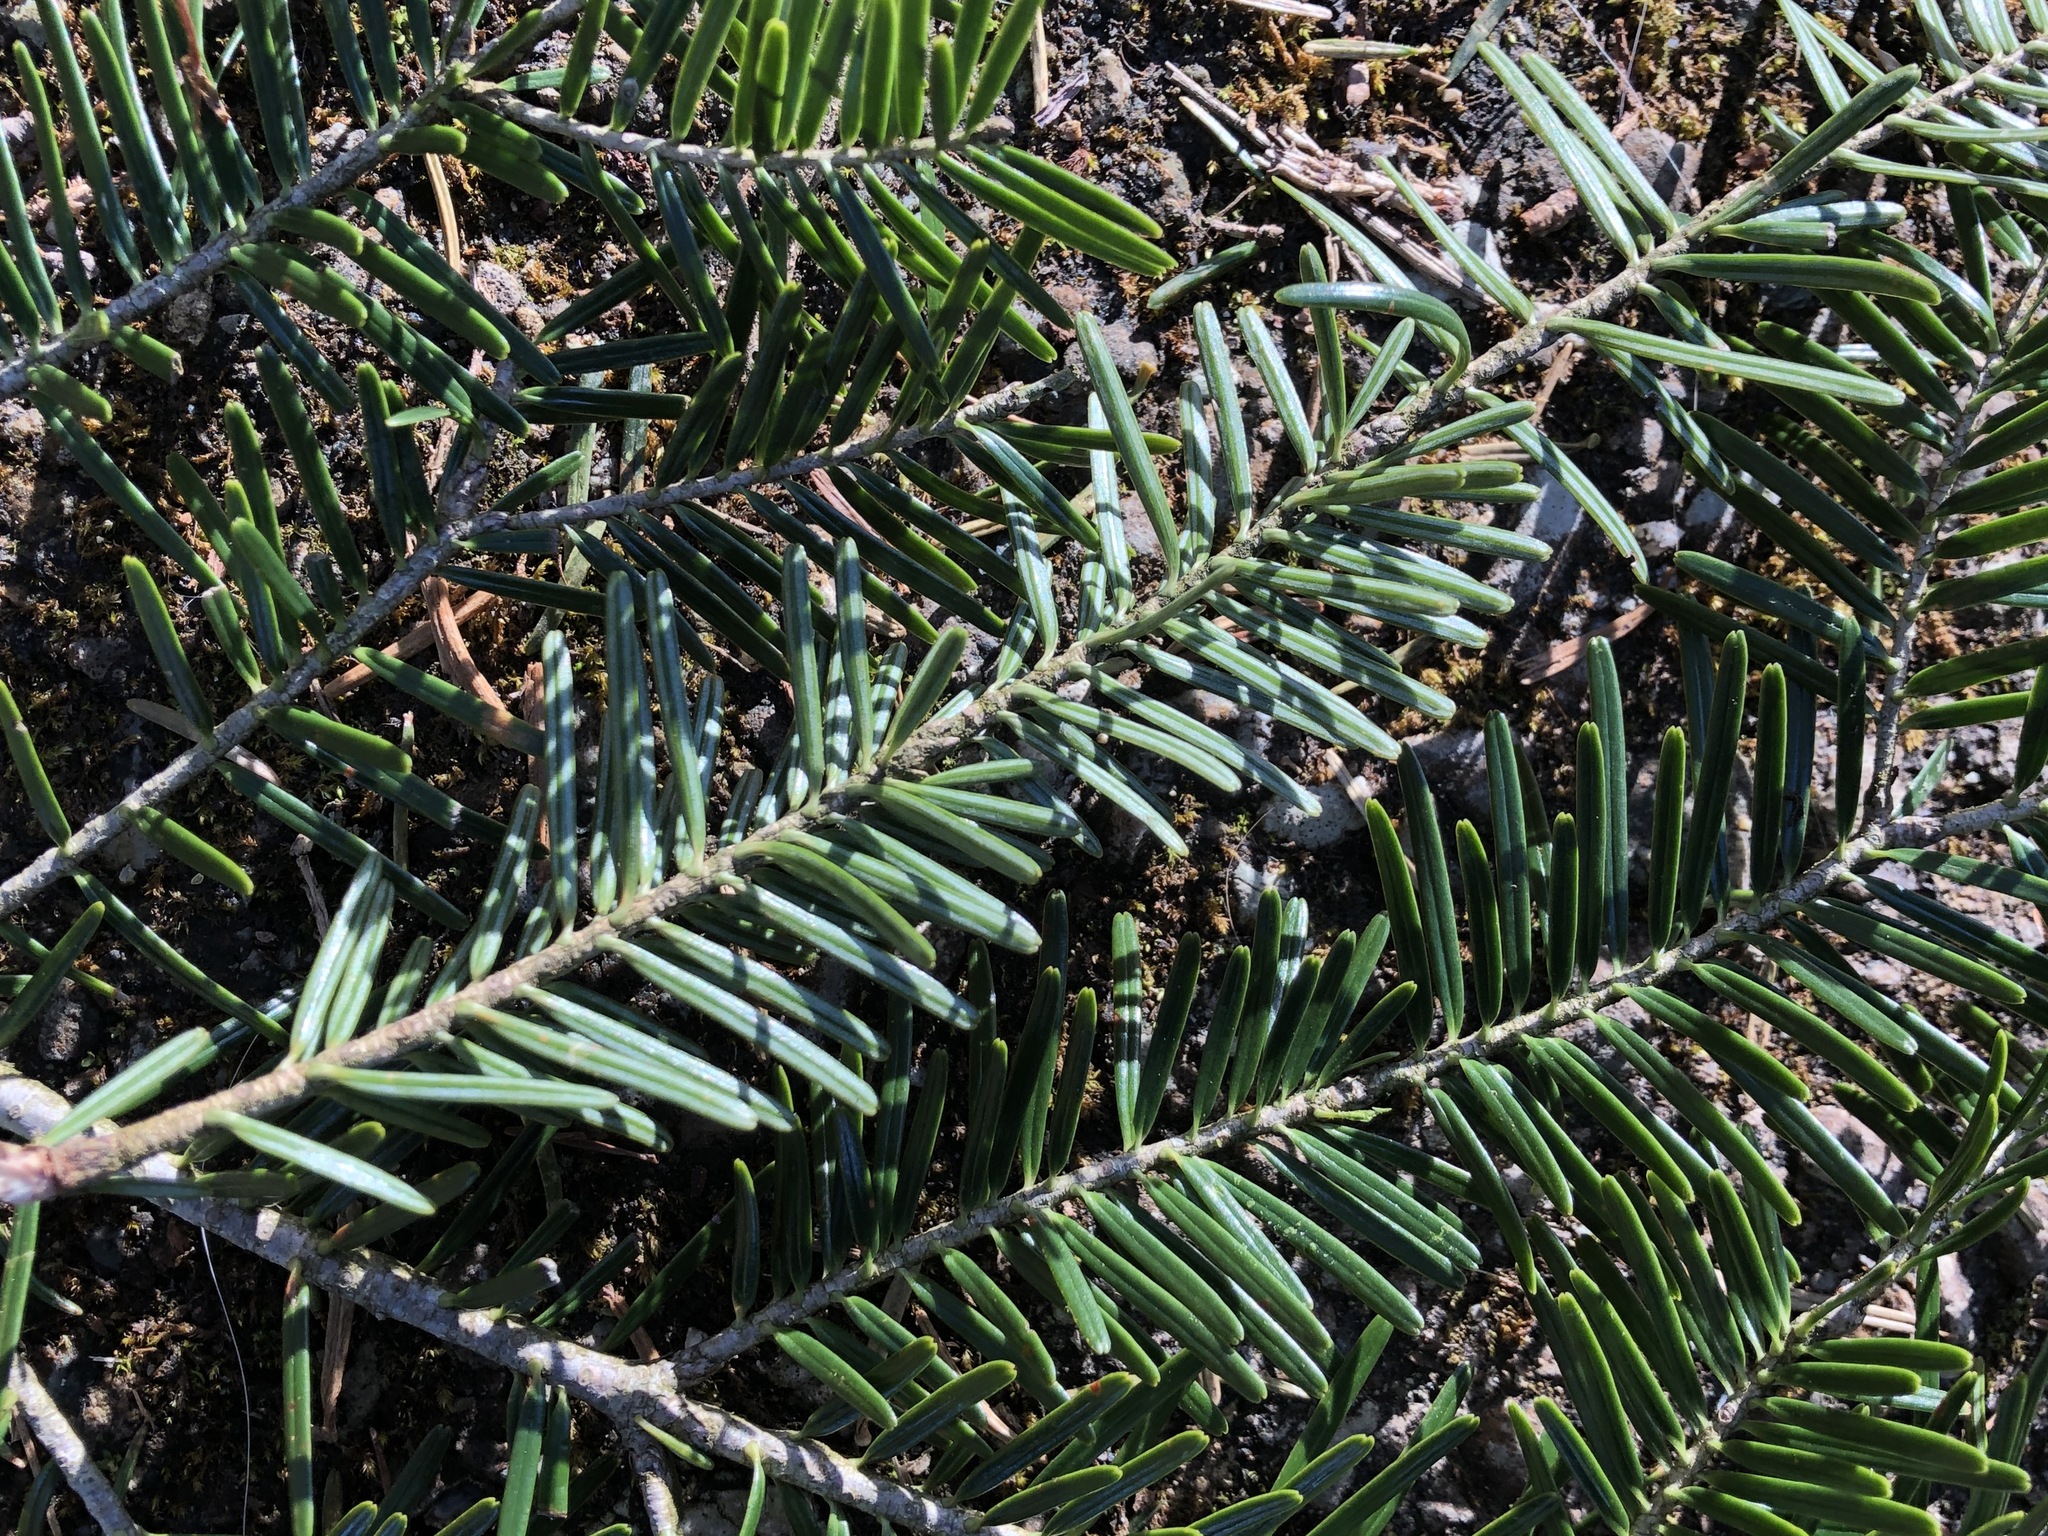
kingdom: Plantae
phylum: Tracheophyta
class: Pinopsida
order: Pinales
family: Pinaceae
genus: Abies
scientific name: Abies alba
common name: Silver fir
